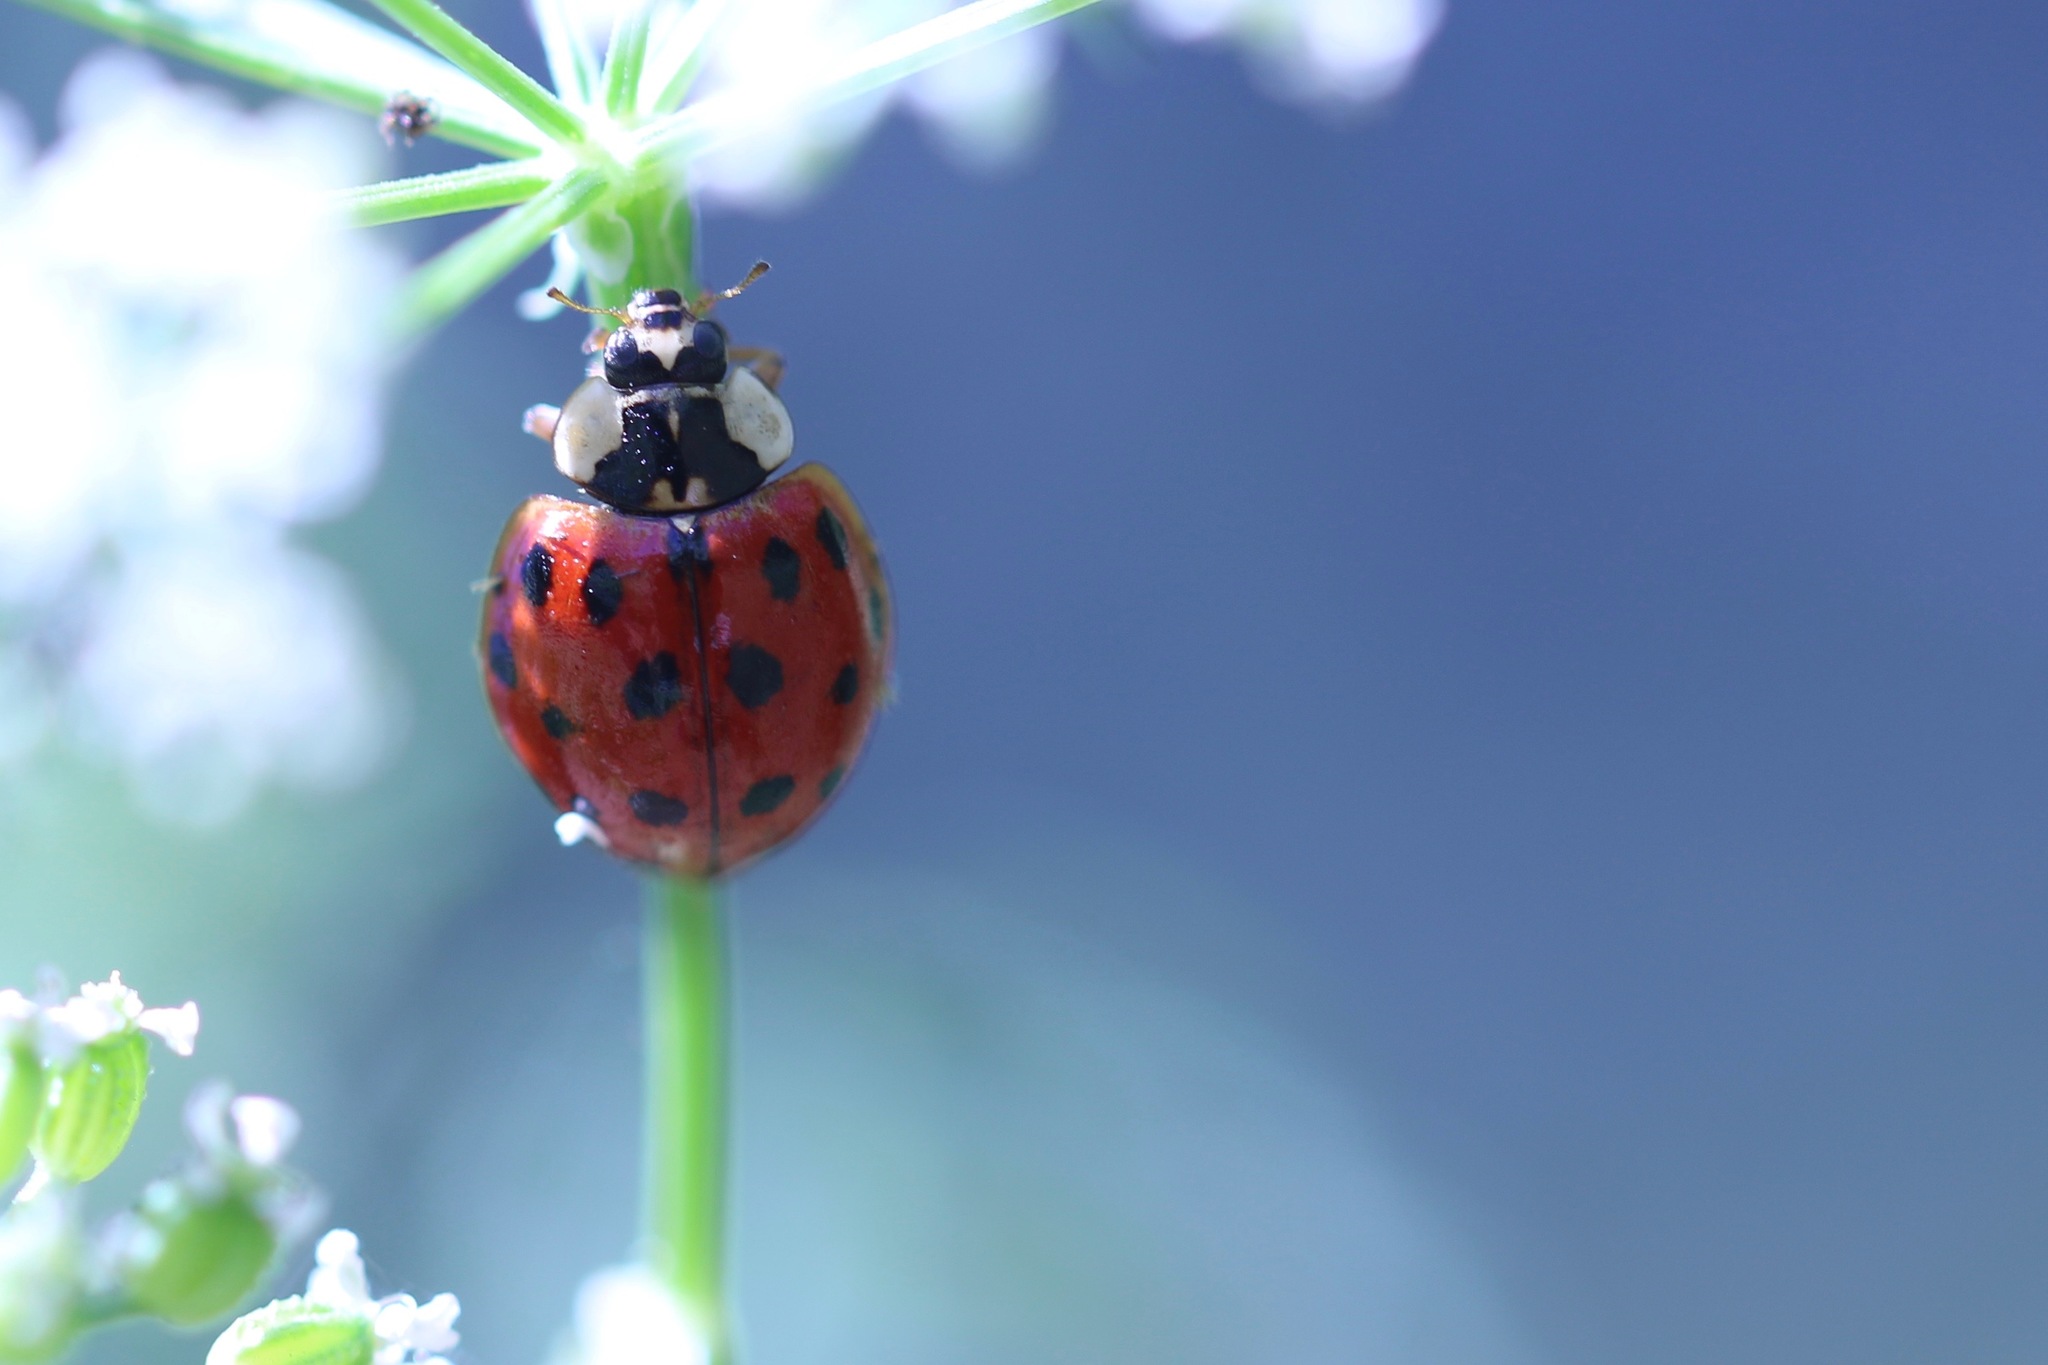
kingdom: Animalia
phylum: Arthropoda
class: Insecta
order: Coleoptera
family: Coccinellidae
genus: Harmonia
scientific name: Harmonia axyridis
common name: Harlequin ladybird
